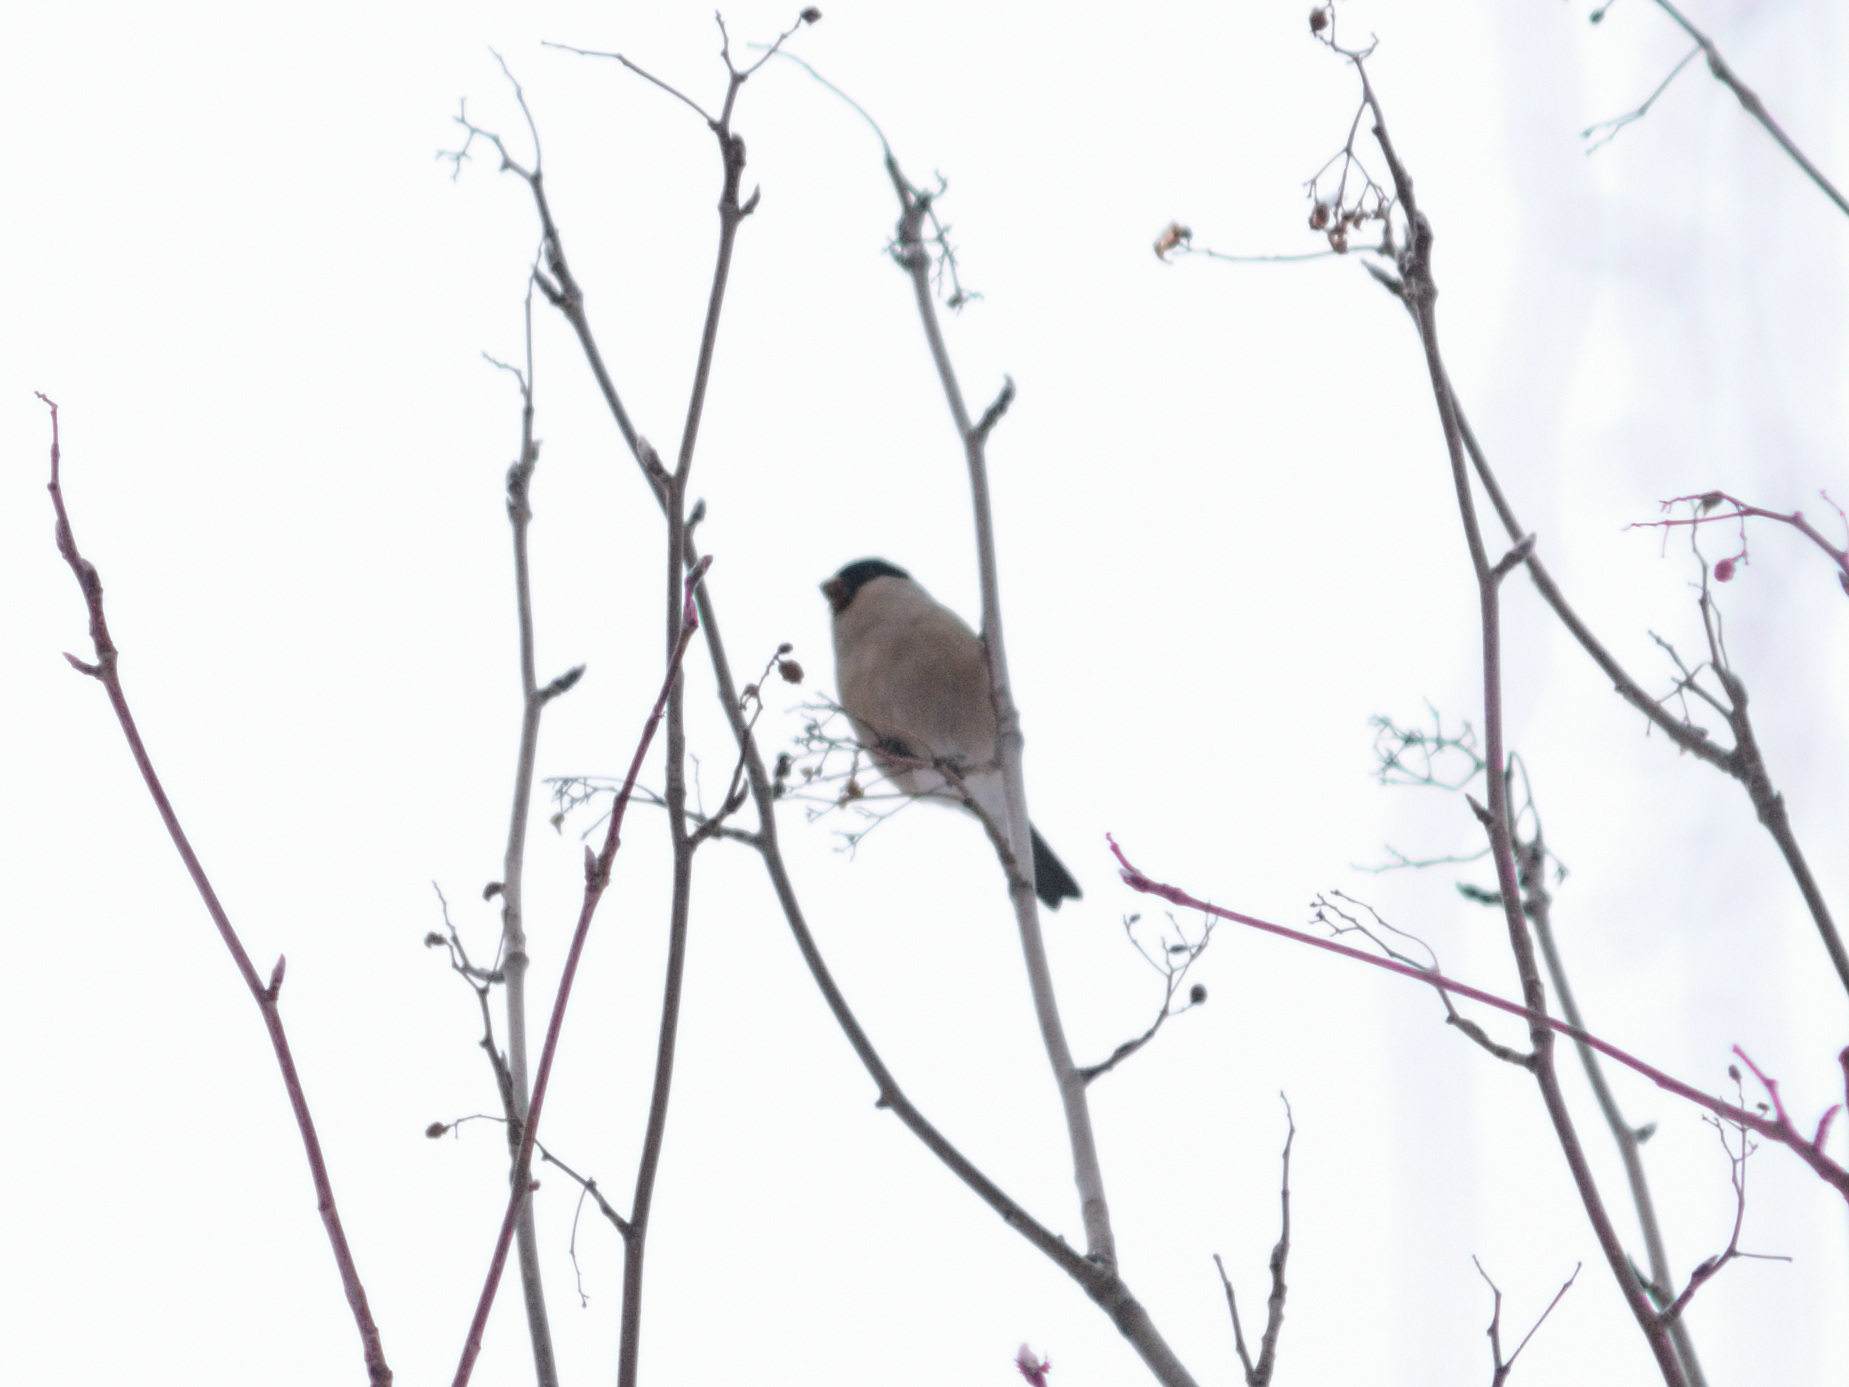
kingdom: Animalia
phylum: Chordata
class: Aves
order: Passeriformes
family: Fringillidae
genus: Pyrrhula
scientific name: Pyrrhula pyrrhula
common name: Eurasian bullfinch
